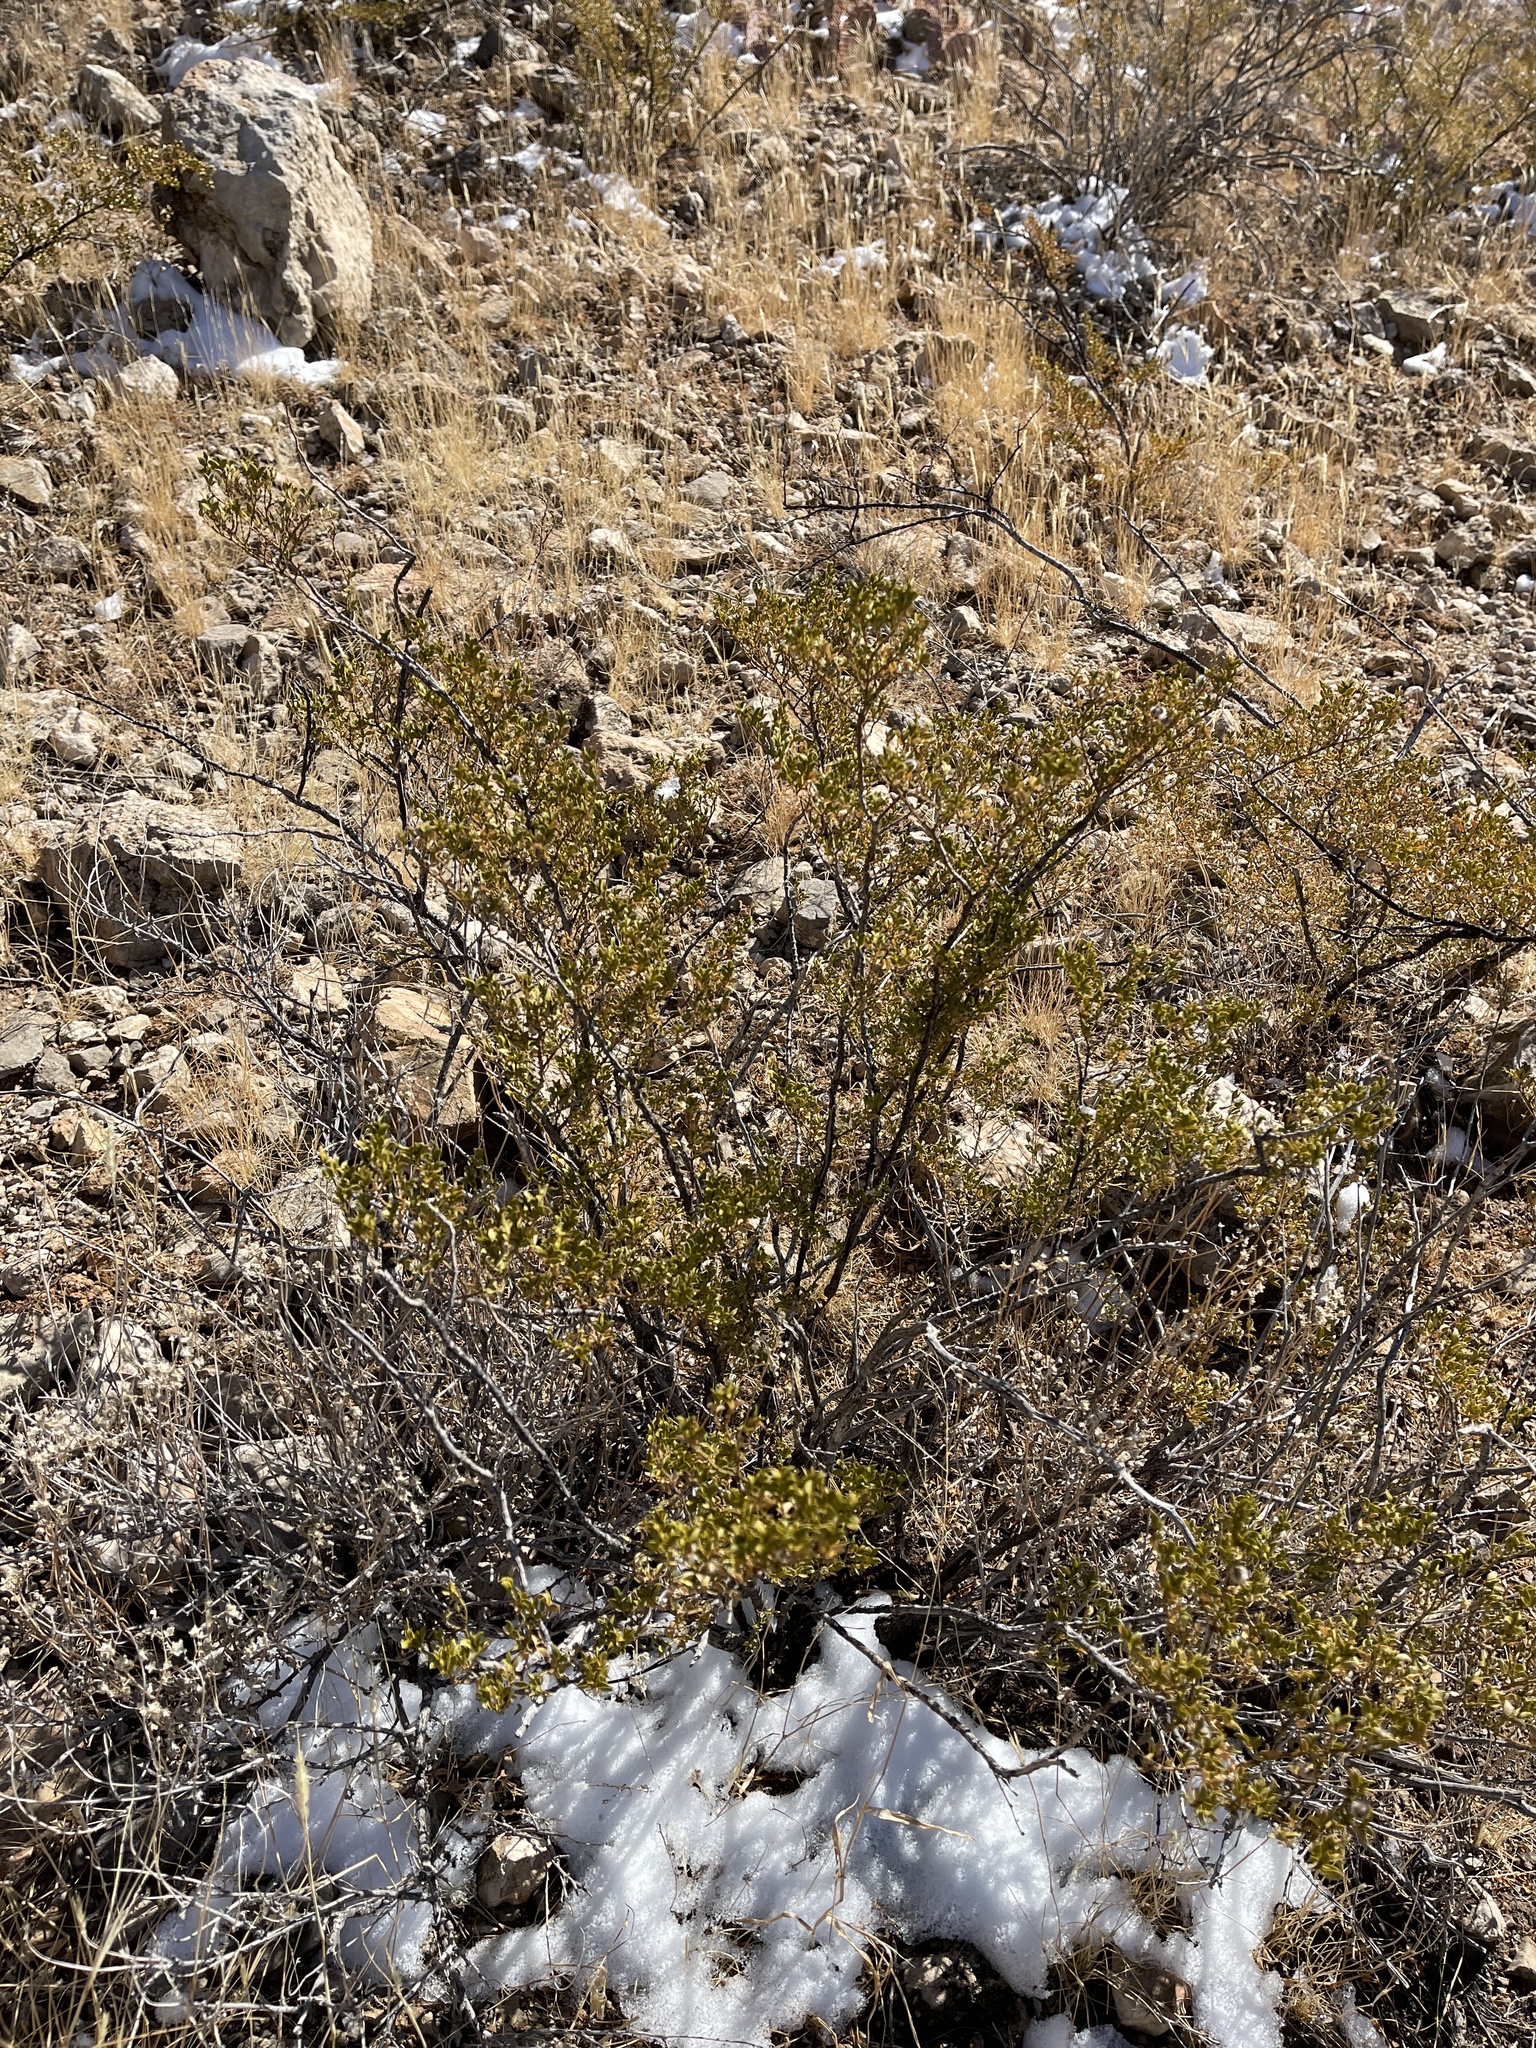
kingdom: Plantae
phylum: Tracheophyta
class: Magnoliopsida
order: Zygophyllales
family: Zygophyllaceae
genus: Larrea
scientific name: Larrea tridentata
